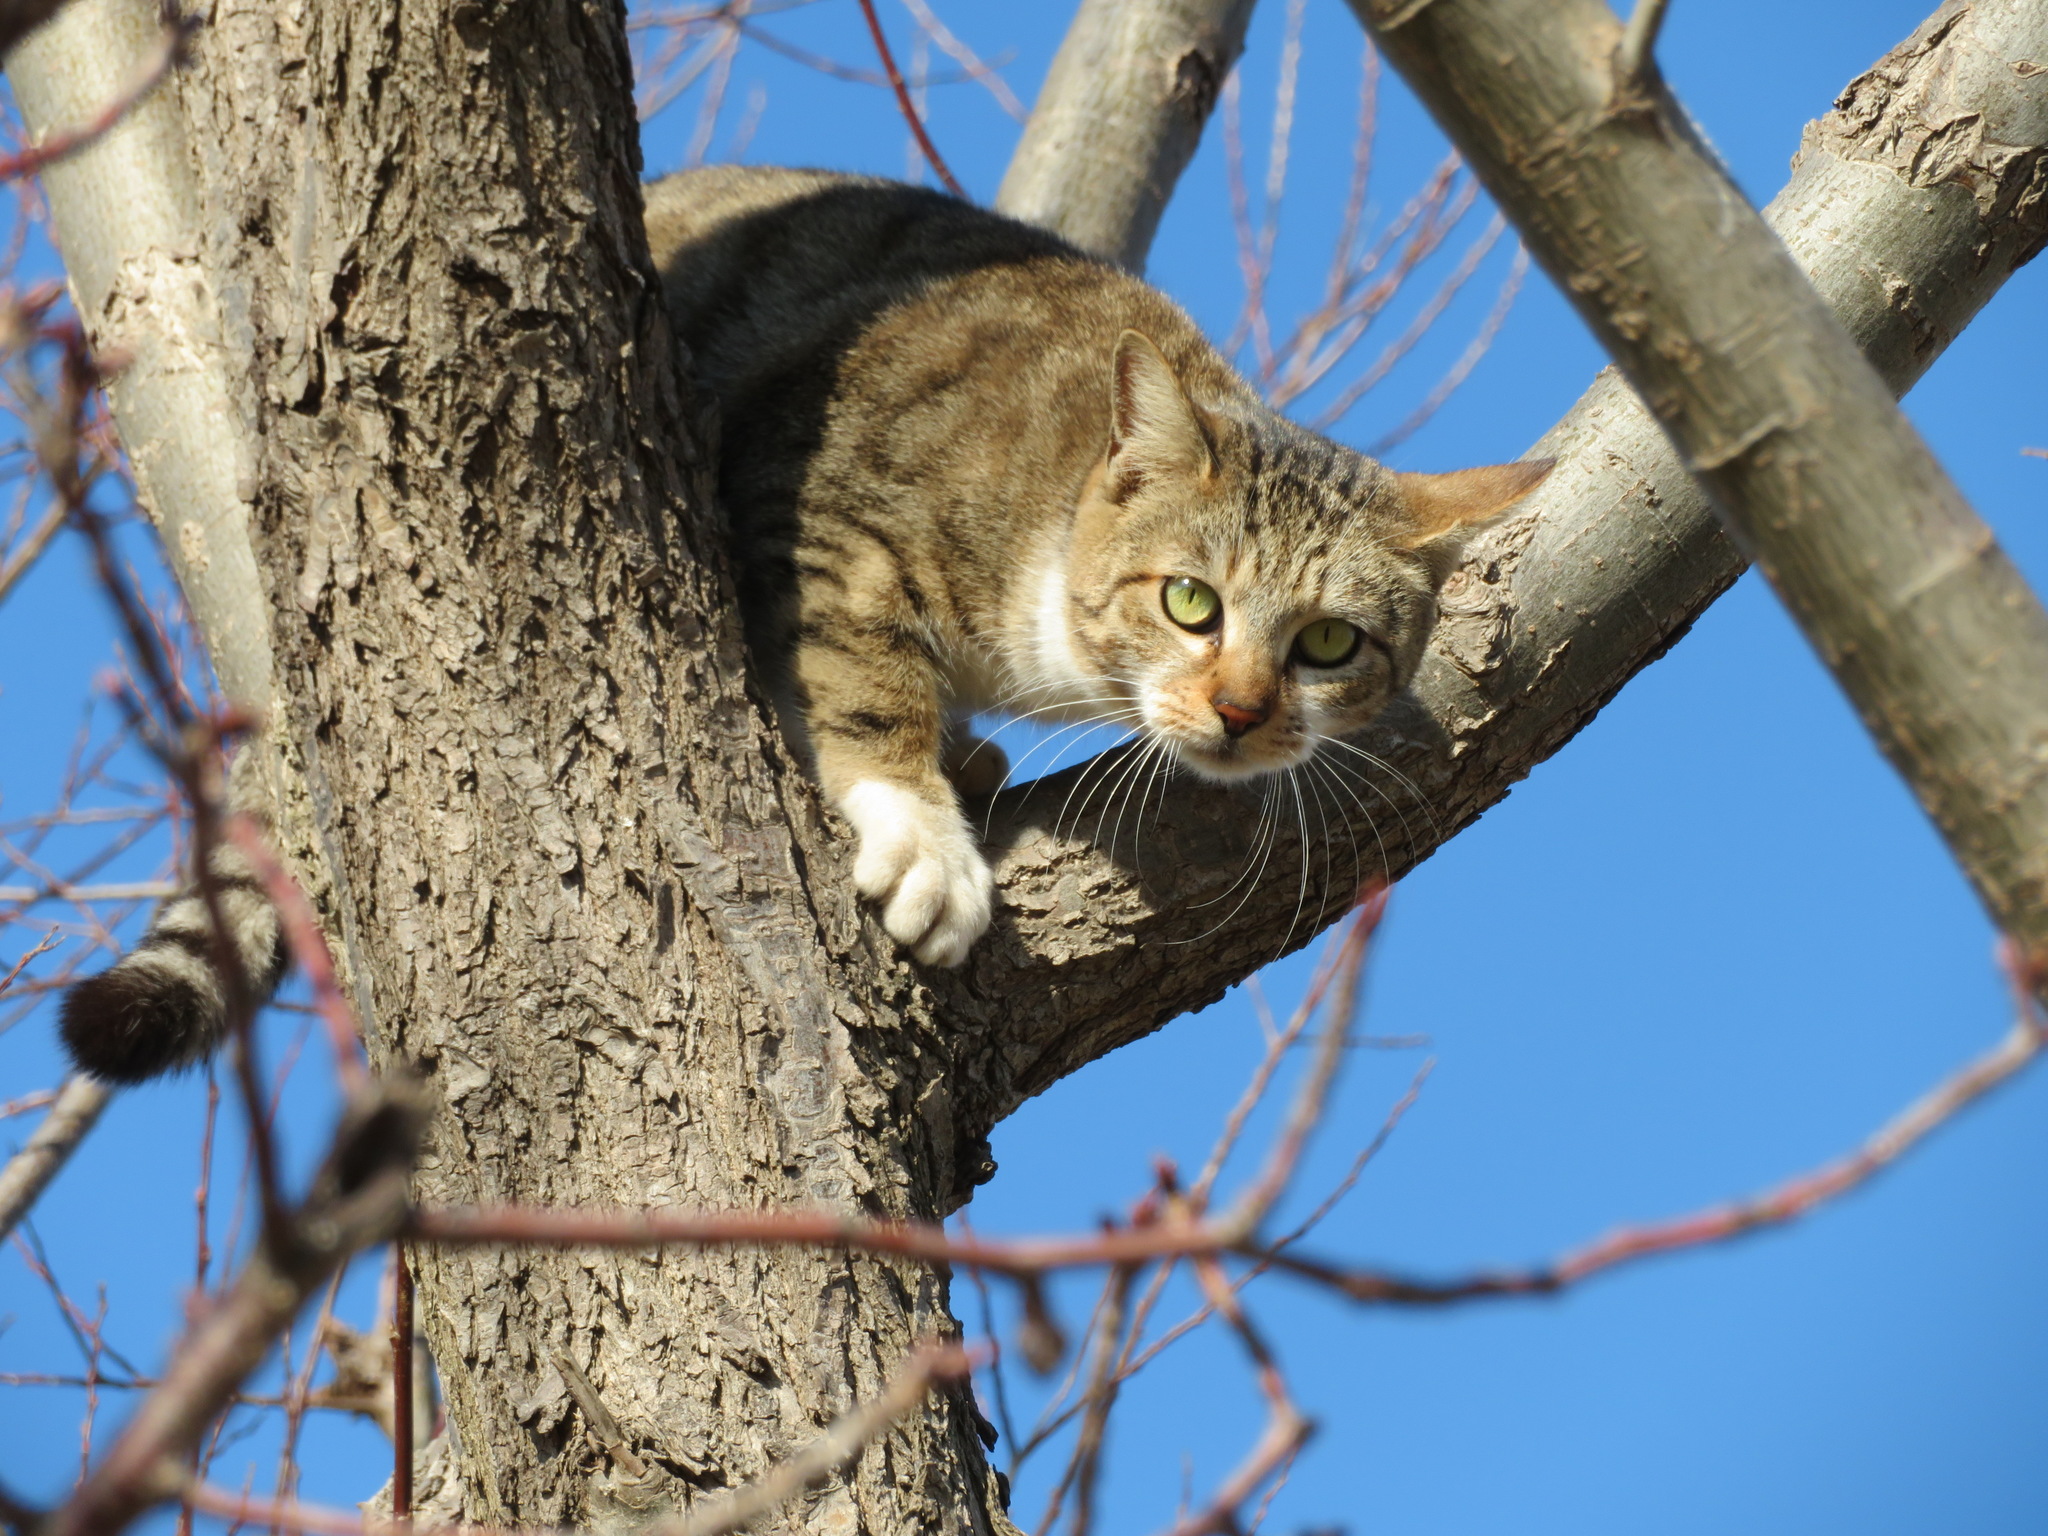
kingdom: Animalia
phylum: Chordata
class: Mammalia
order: Carnivora
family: Felidae
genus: Felis
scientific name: Felis catus
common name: Domestic cat
